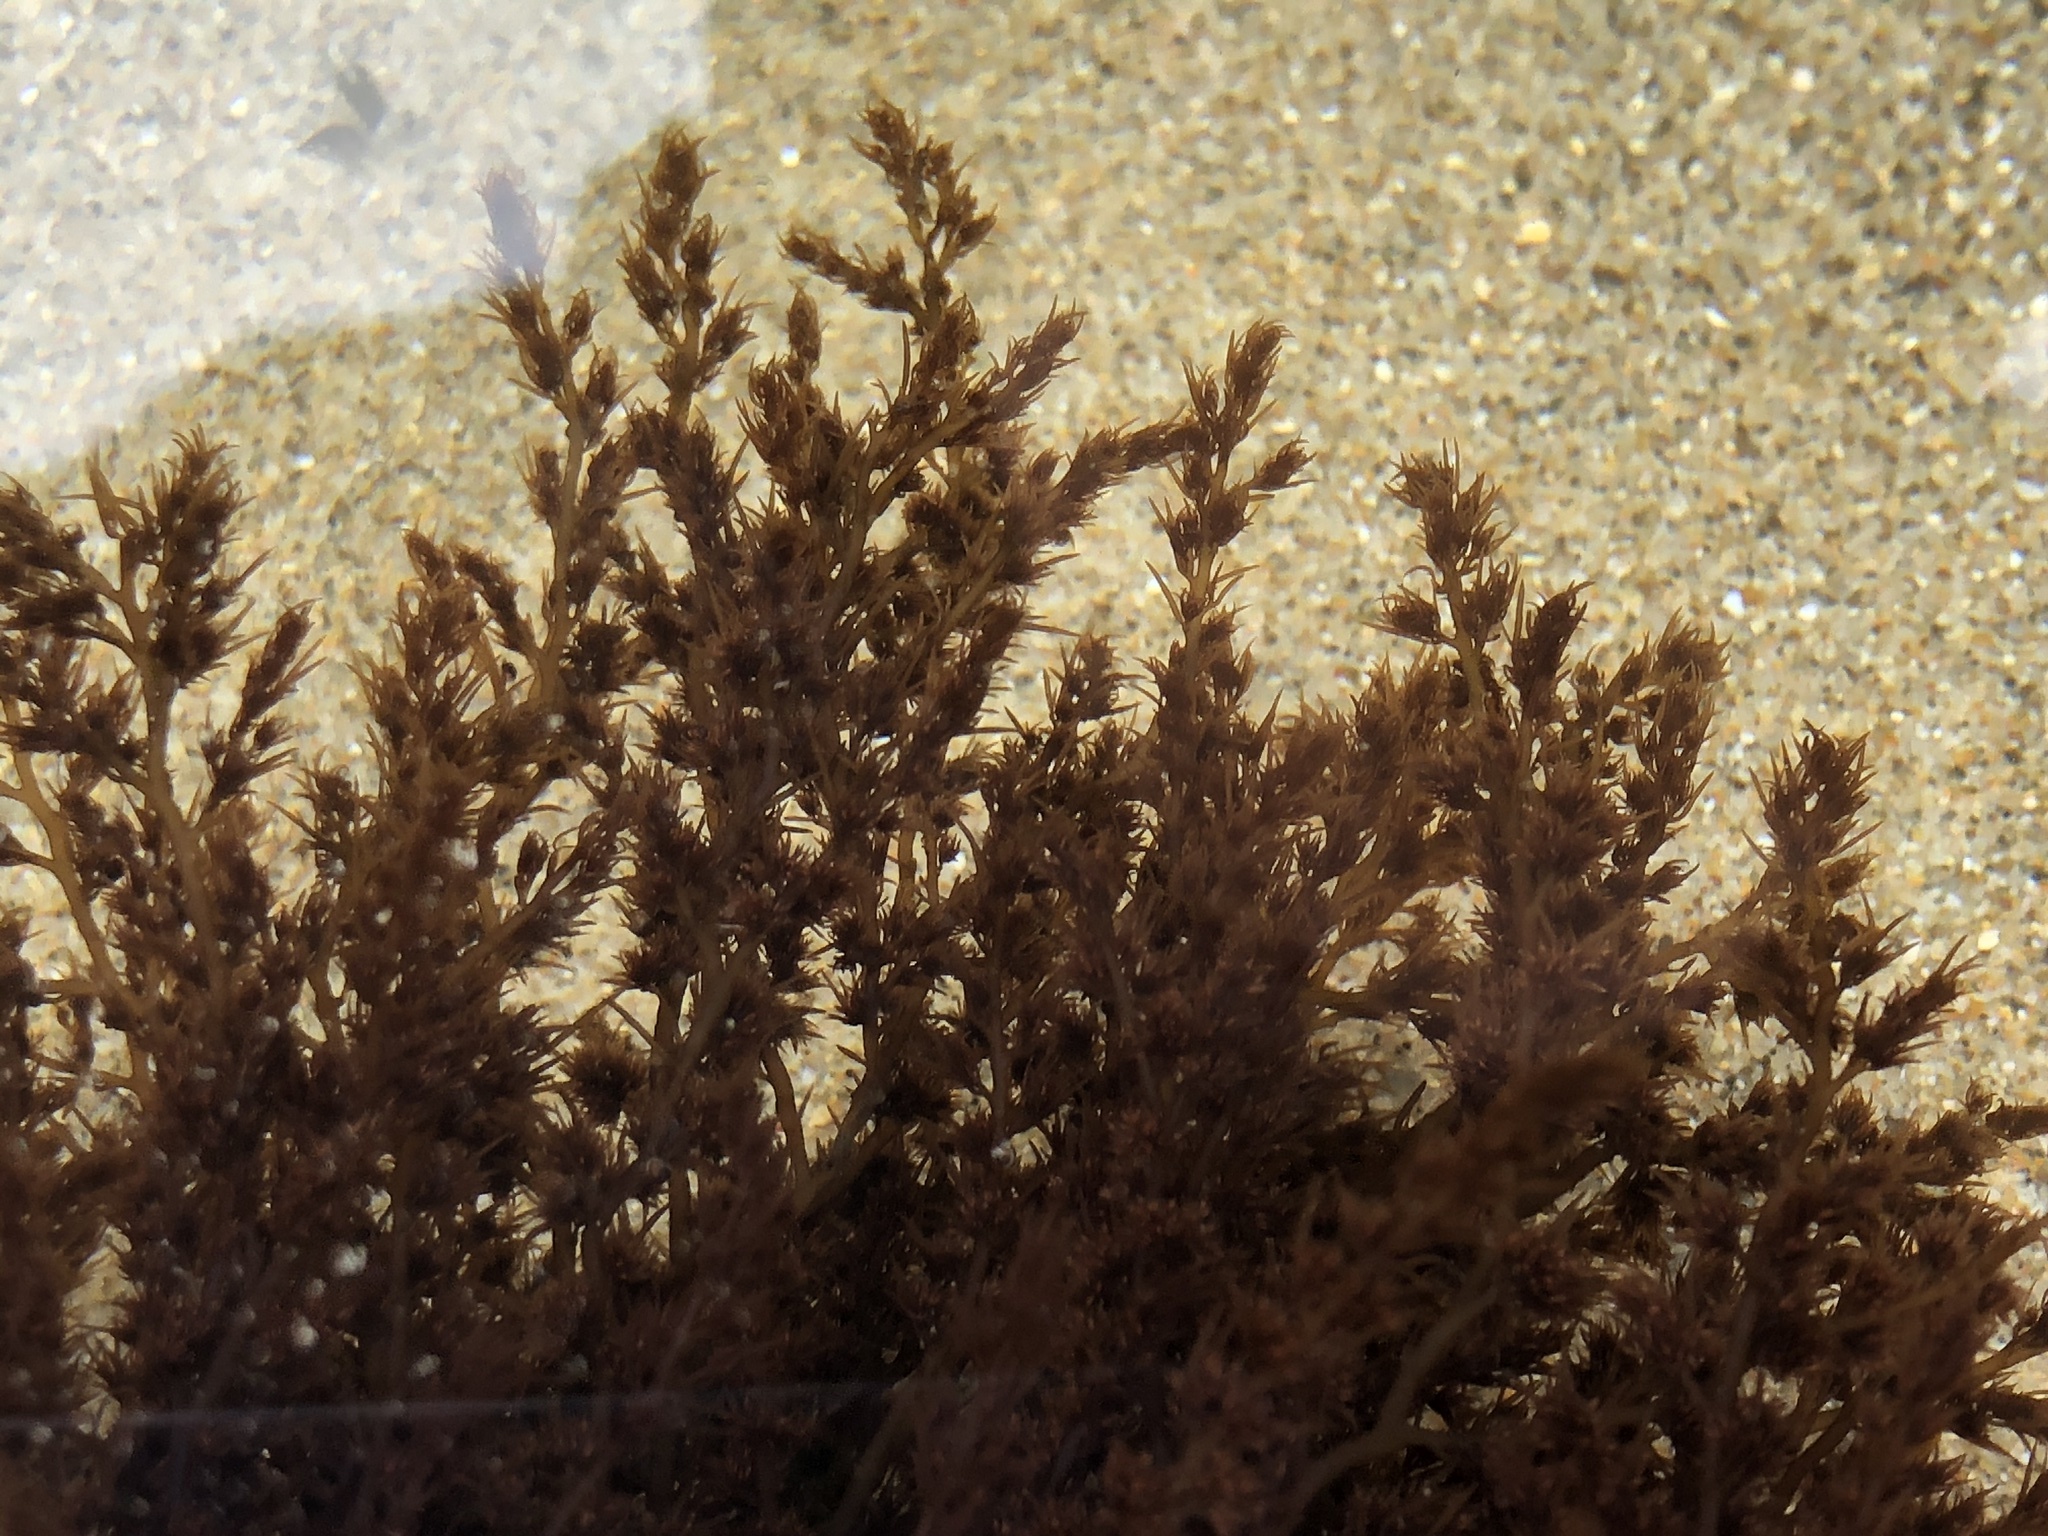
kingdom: Plantae
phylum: Rhodophyta
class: Florideophyceae
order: Ceramiales
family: Rhodomelaceae
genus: Odonthalia
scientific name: Odonthalia floccosa
